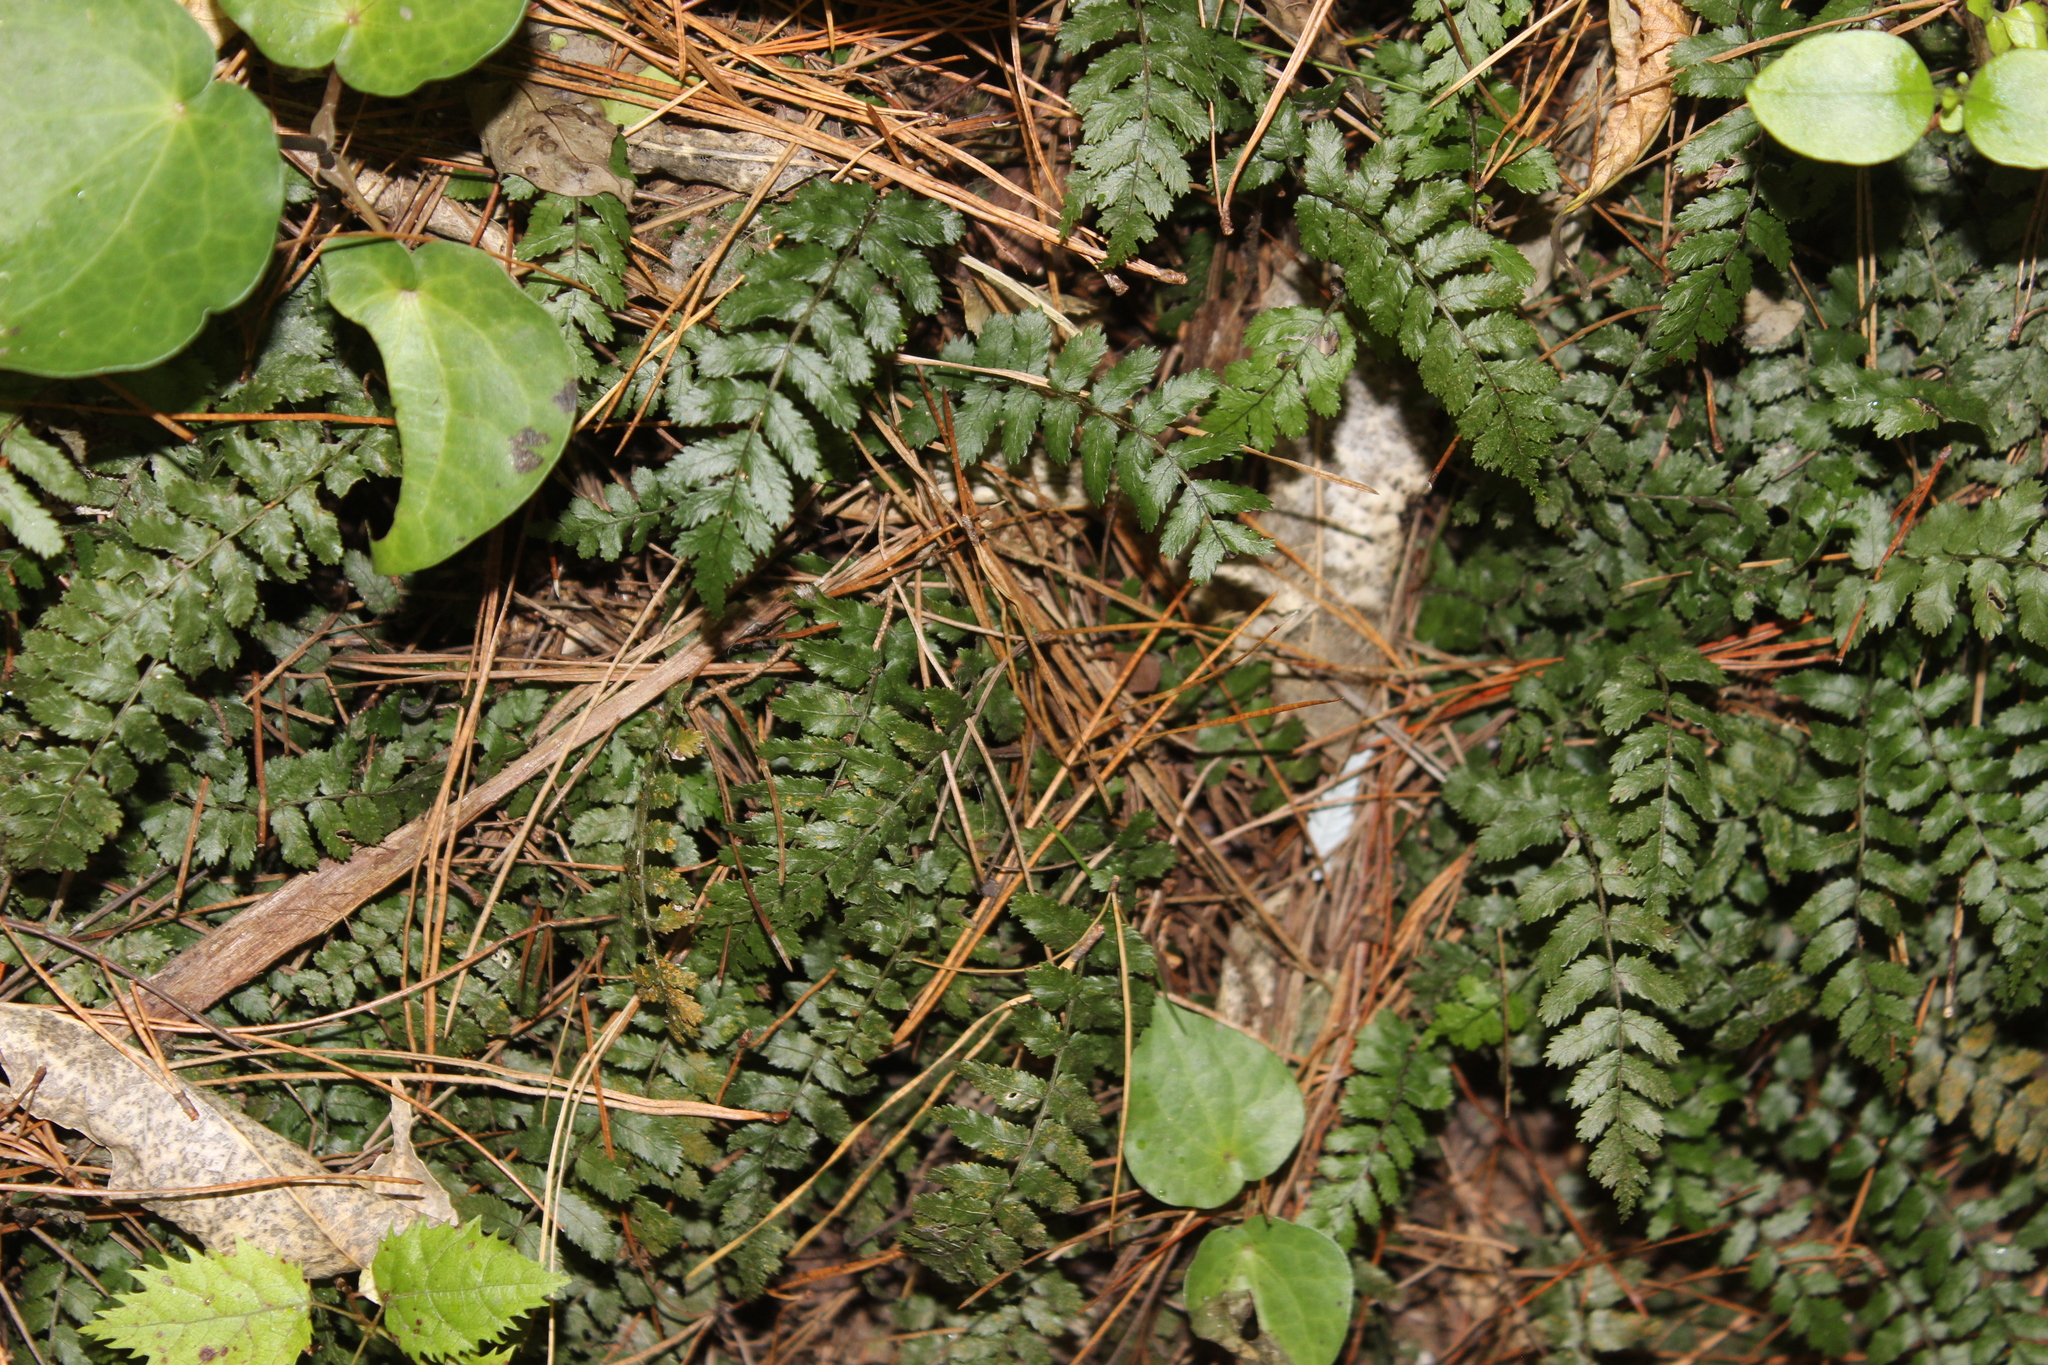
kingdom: Plantae
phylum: Tracheophyta
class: Polypodiopsida
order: Polypodiales
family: Blechnaceae
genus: Icarus
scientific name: Icarus filiformis
